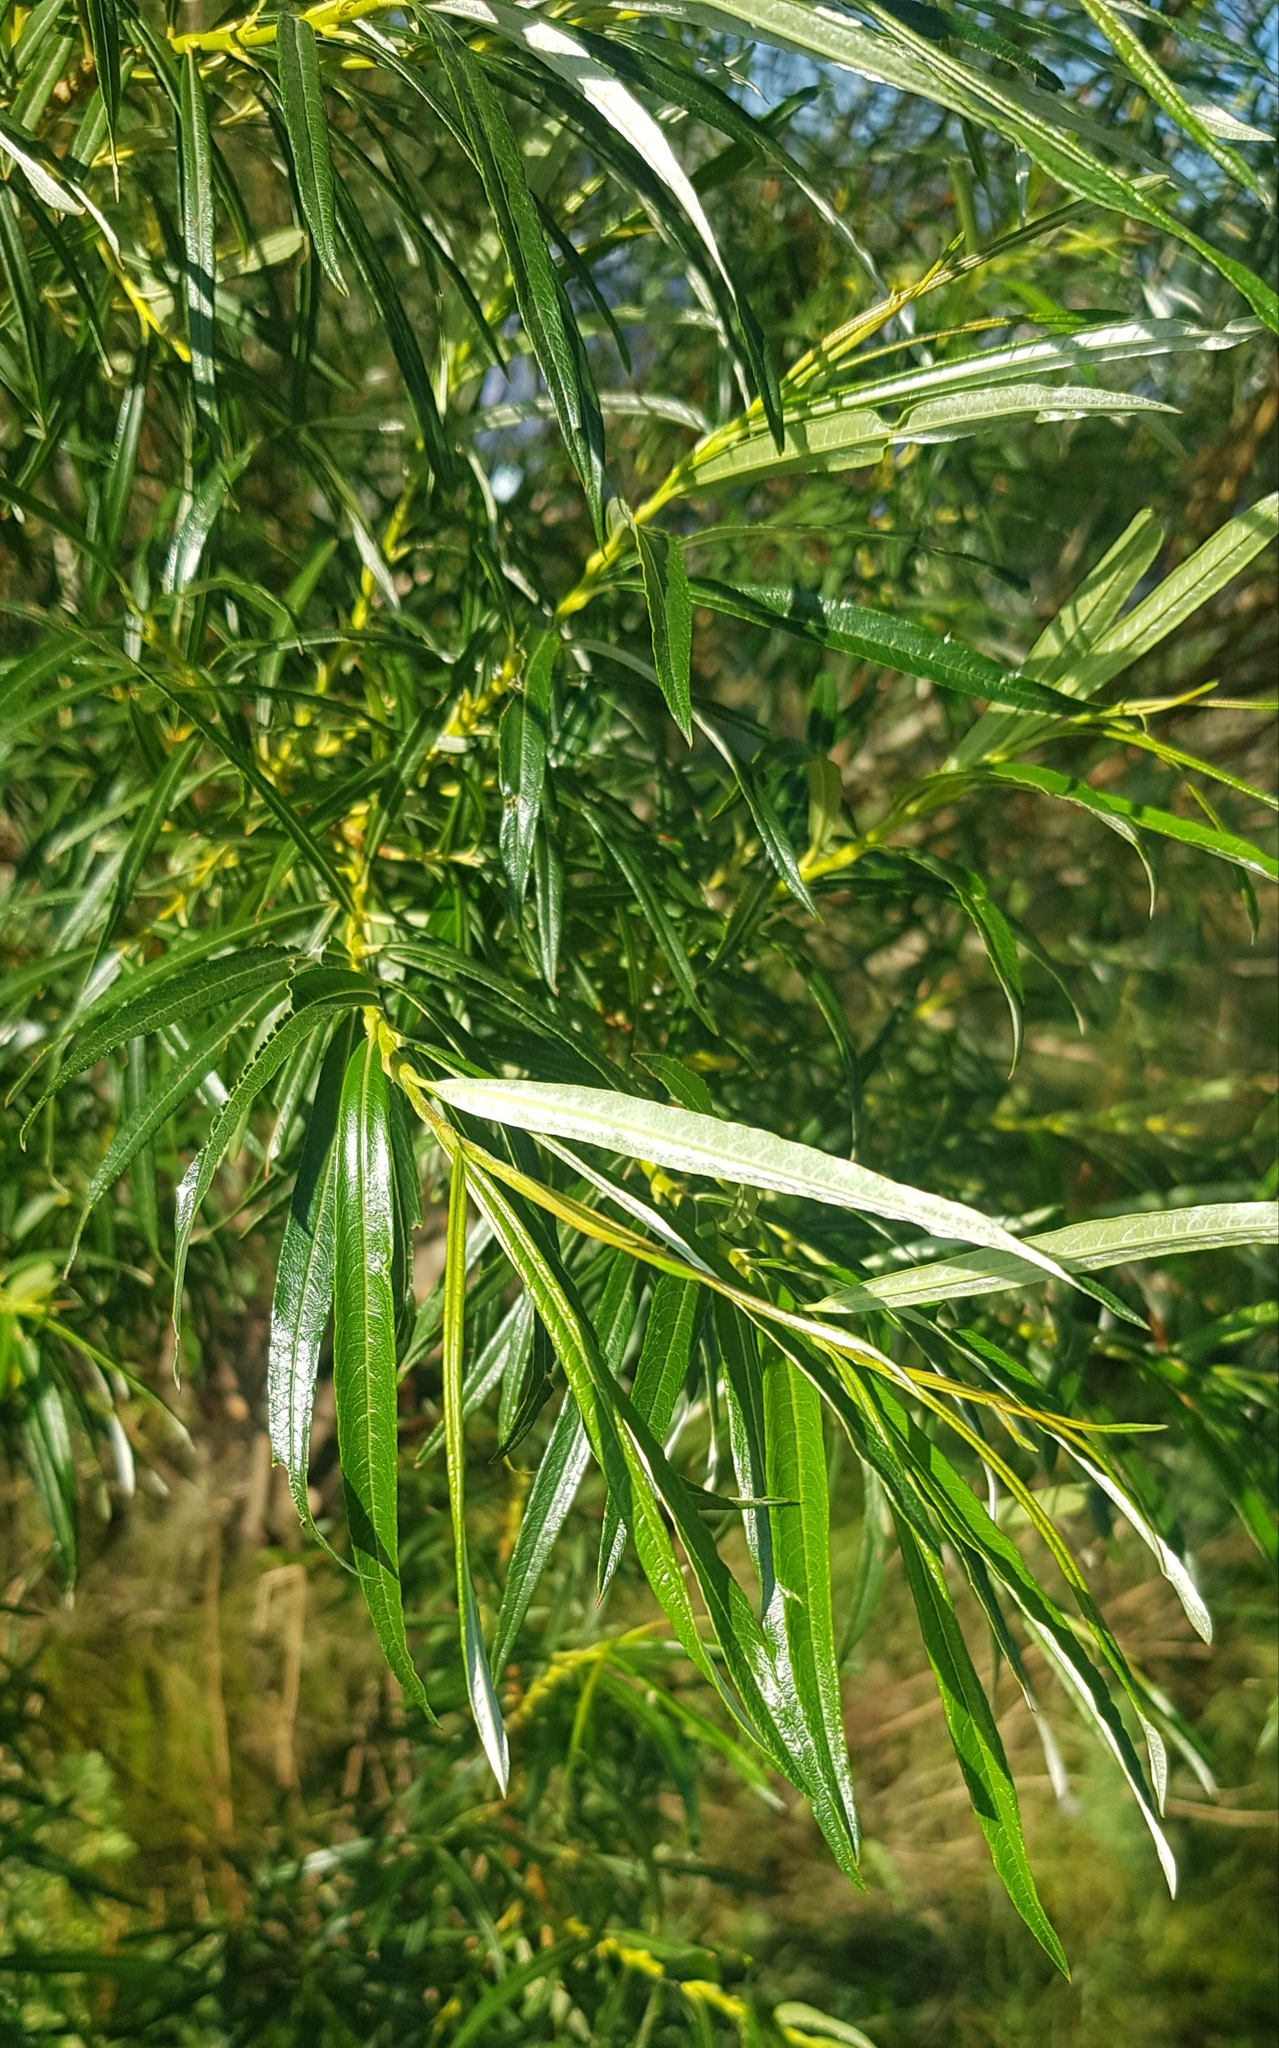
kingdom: Plantae
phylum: Tracheophyta
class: Magnoliopsida
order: Malpighiales
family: Salicaceae
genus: Salix
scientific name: Salix viminalis
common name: Osier
